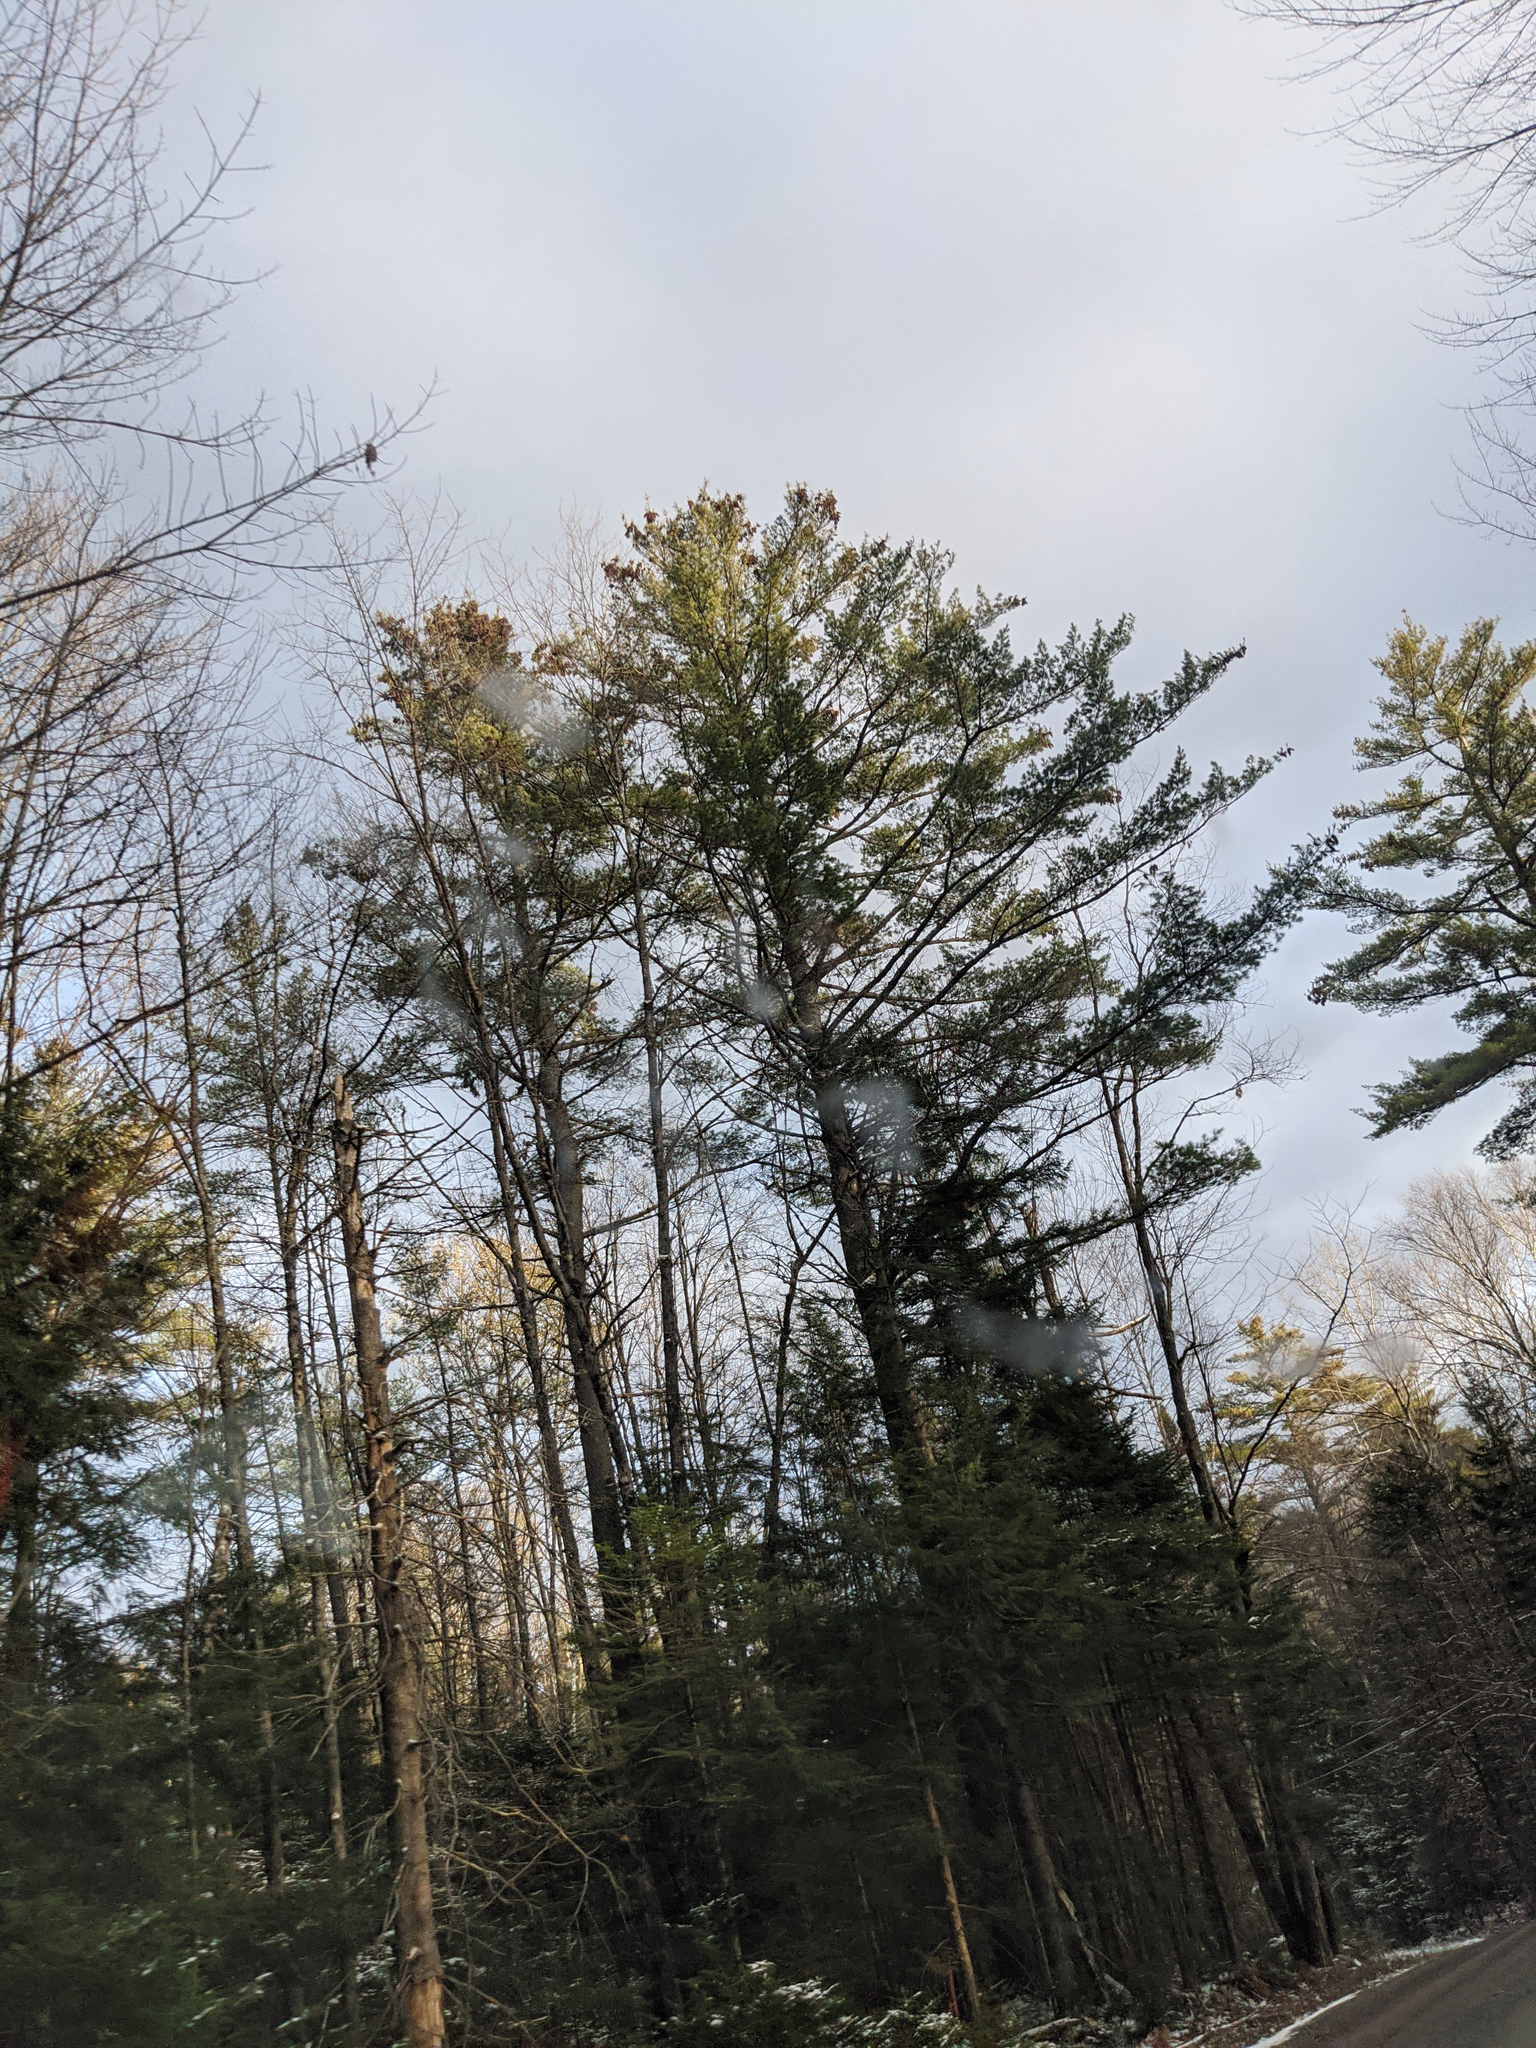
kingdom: Plantae
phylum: Tracheophyta
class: Pinopsida
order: Pinales
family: Pinaceae
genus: Pinus
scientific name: Pinus strobus
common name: Weymouth pine
